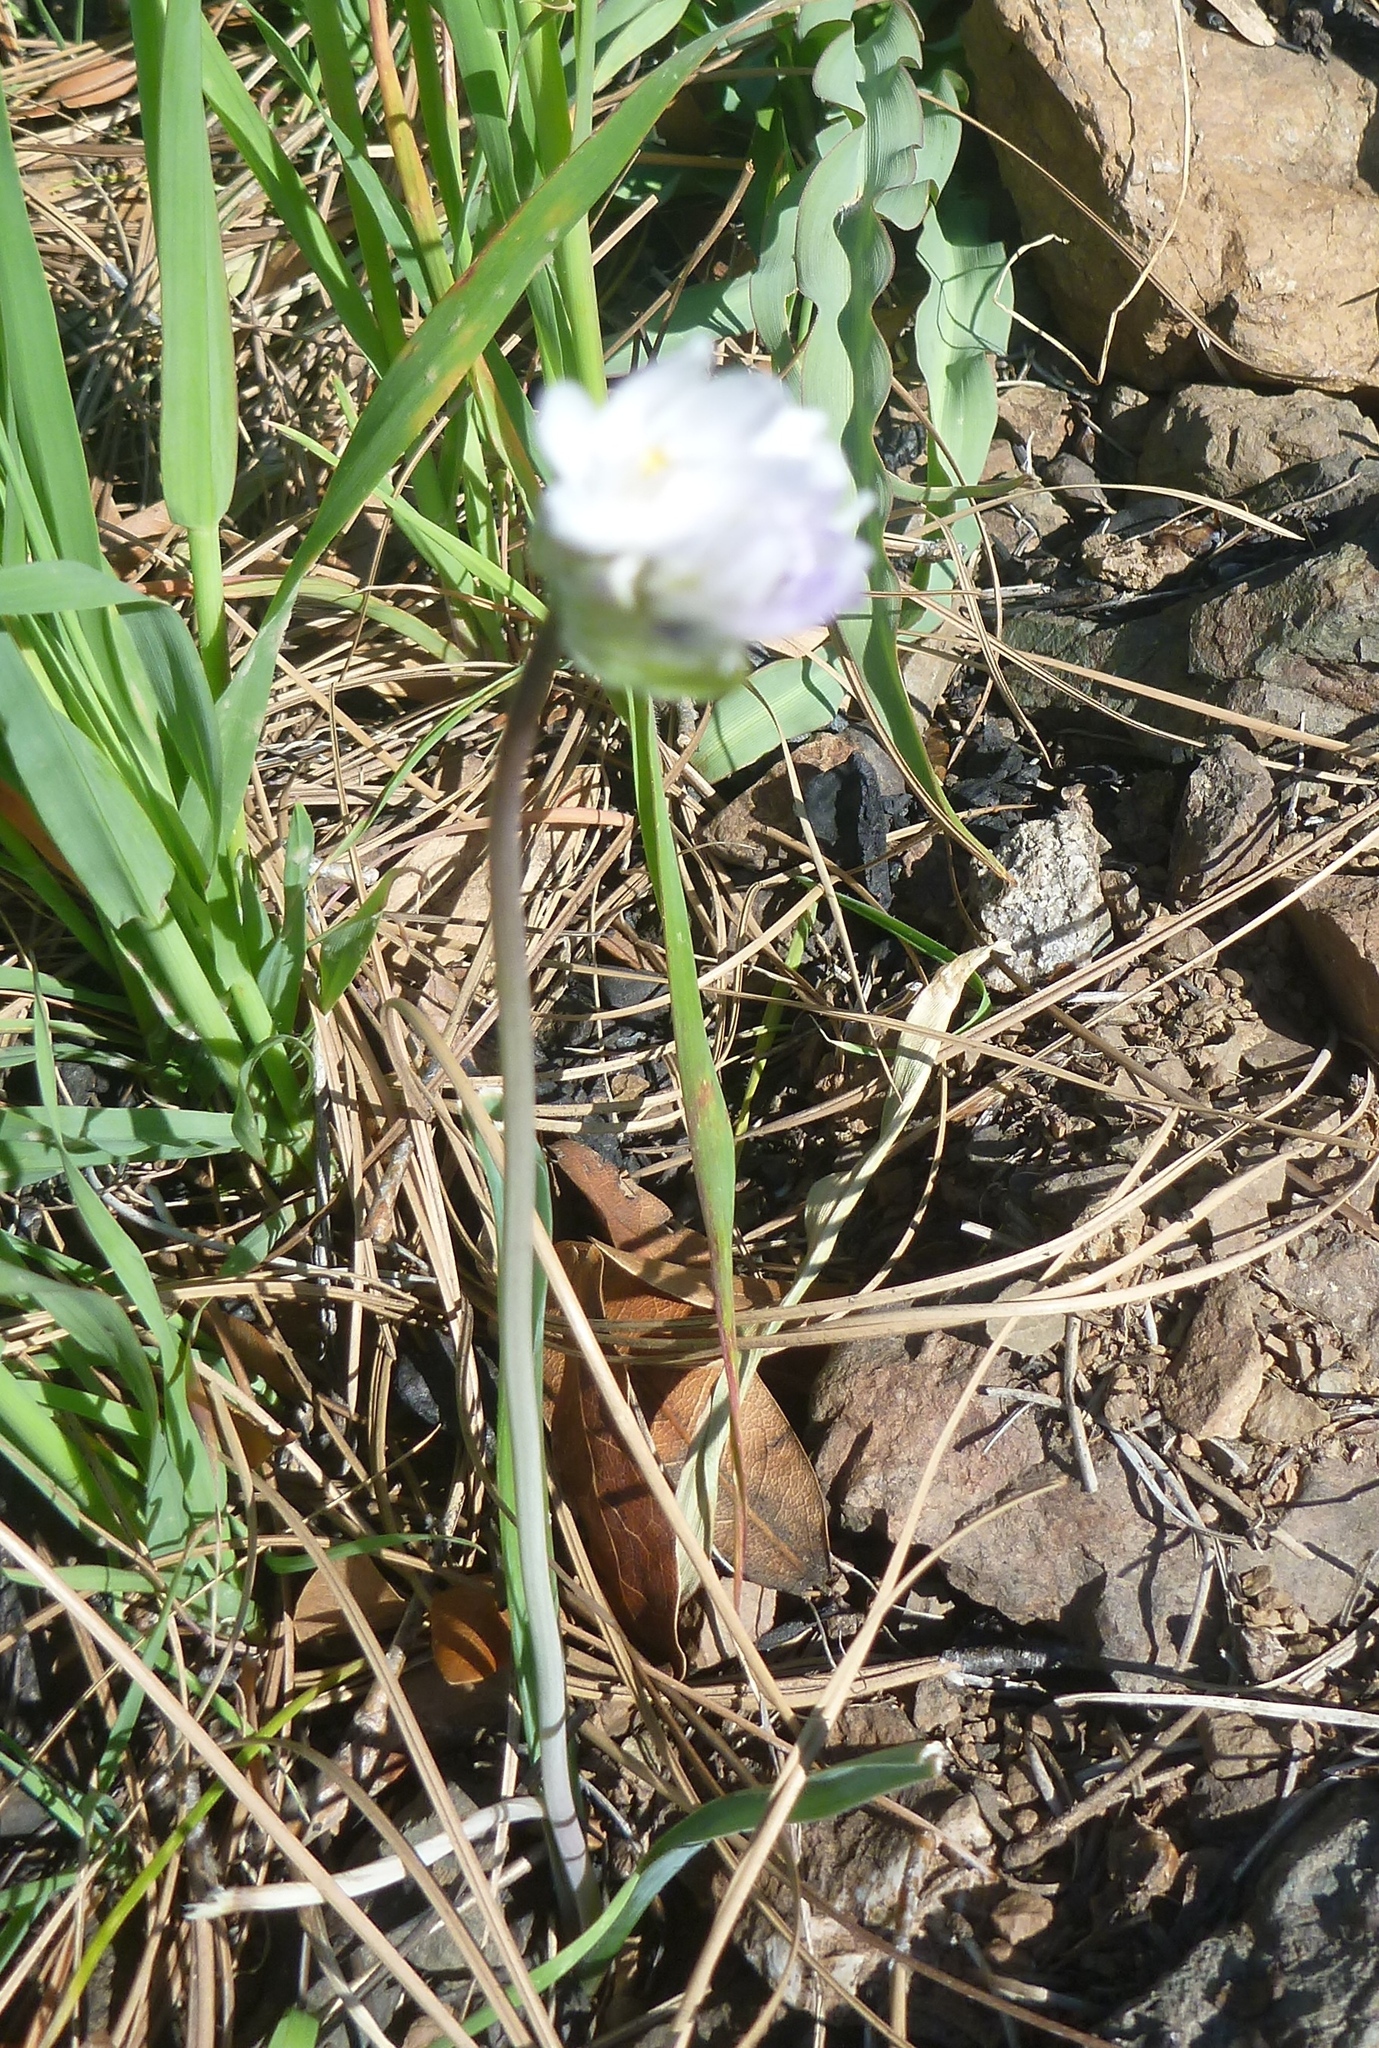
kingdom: Plantae
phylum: Tracheophyta
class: Liliopsida
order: Asparagales
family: Asparagaceae
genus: Dipterostemon
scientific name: Dipterostemon capitatus
